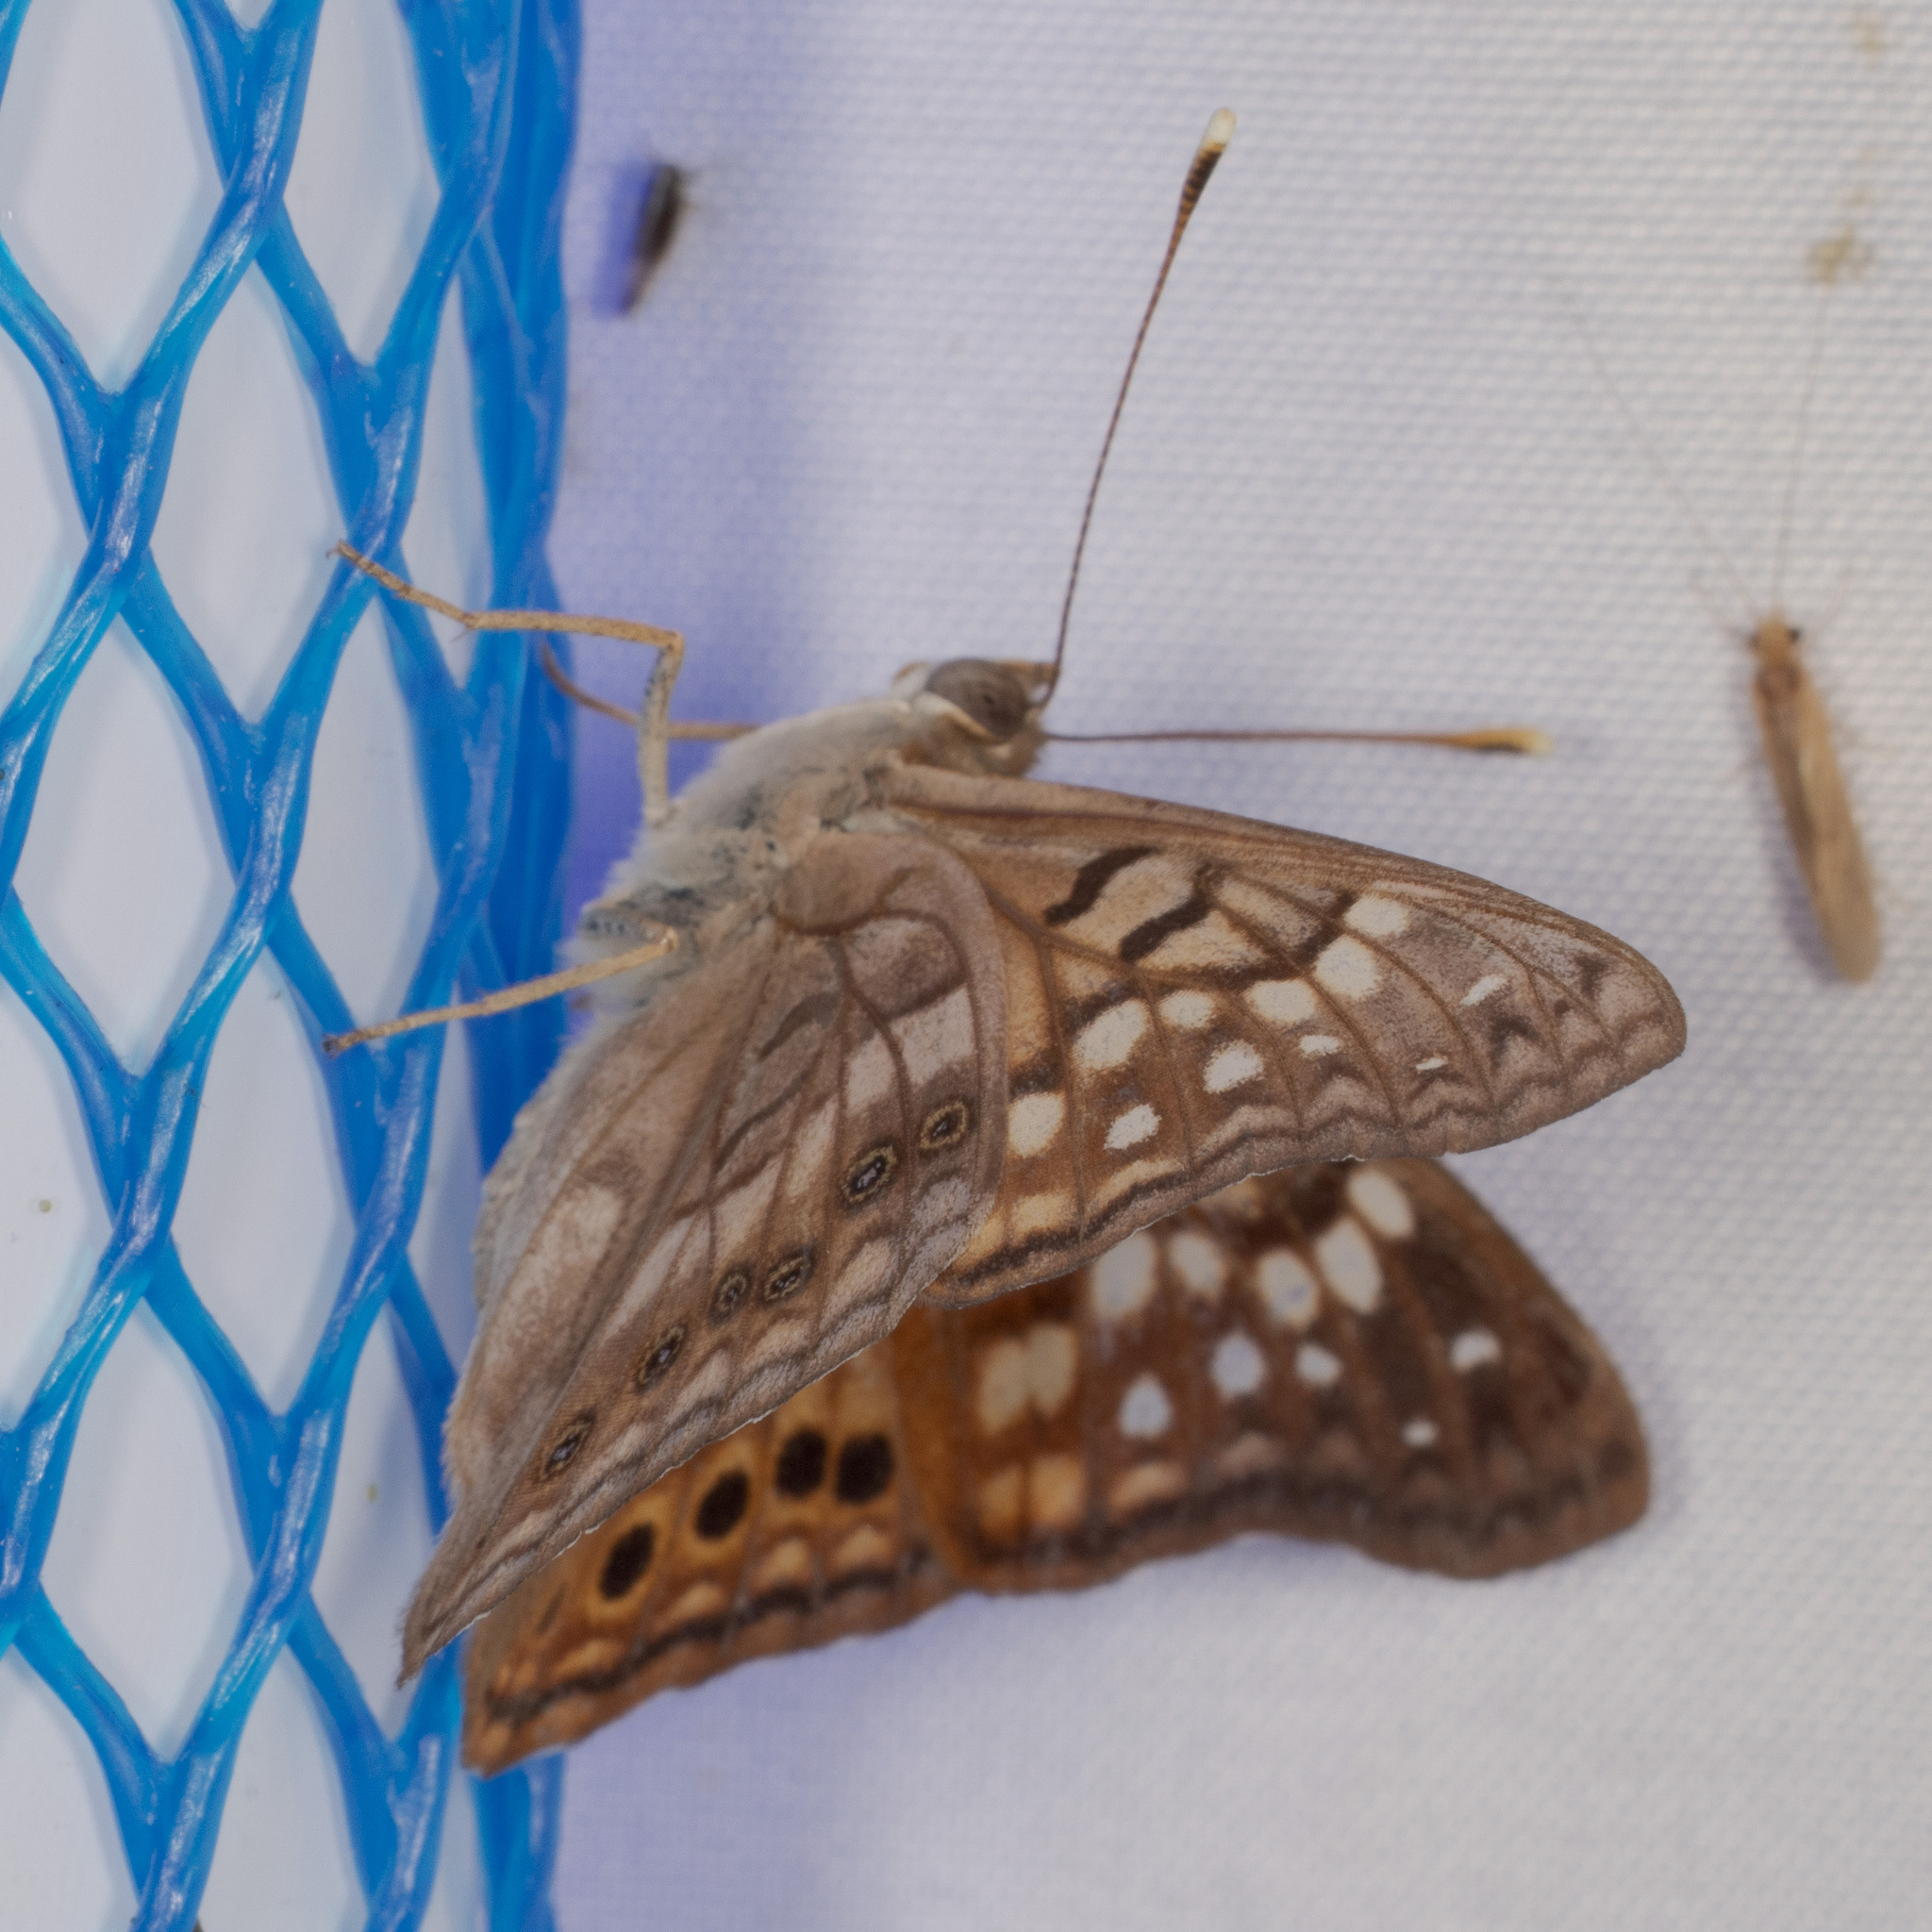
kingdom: Animalia
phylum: Arthropoda
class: Insecta
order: Lepidoptera
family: Nymphalidae
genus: Asterocampa
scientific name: Asterocampa clyton
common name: Tawny emperor
